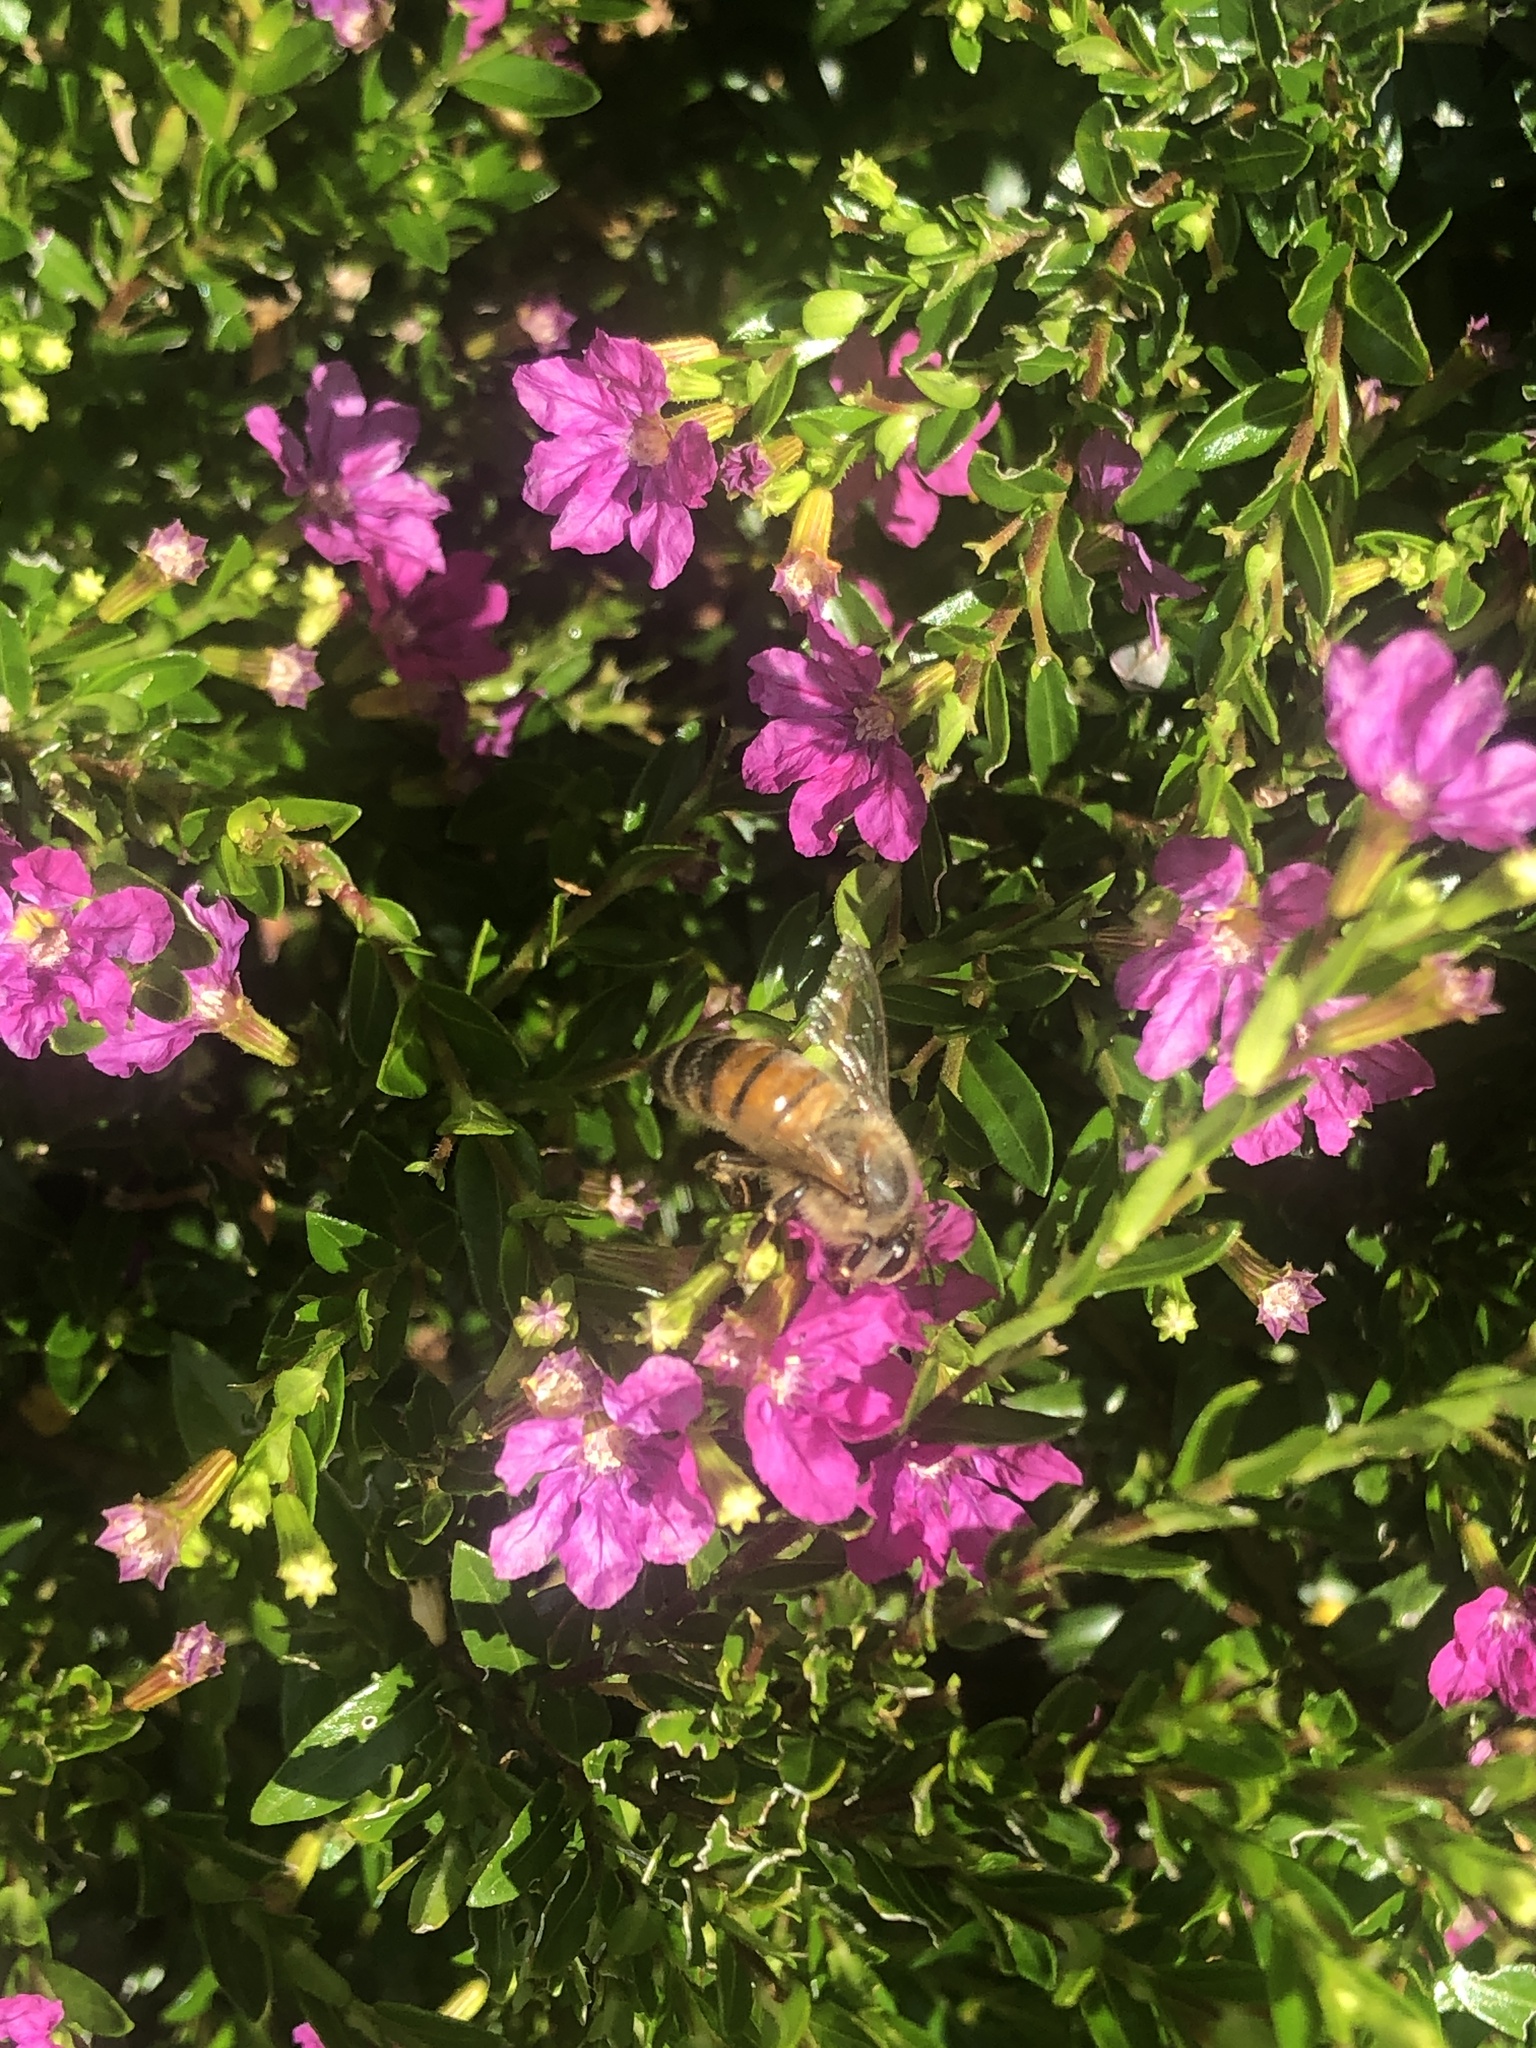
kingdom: Animalia
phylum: Arthropoda
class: Insecta
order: Hymenoptera
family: Apidae
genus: Apis
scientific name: Apis mellifera
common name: Honey bee
